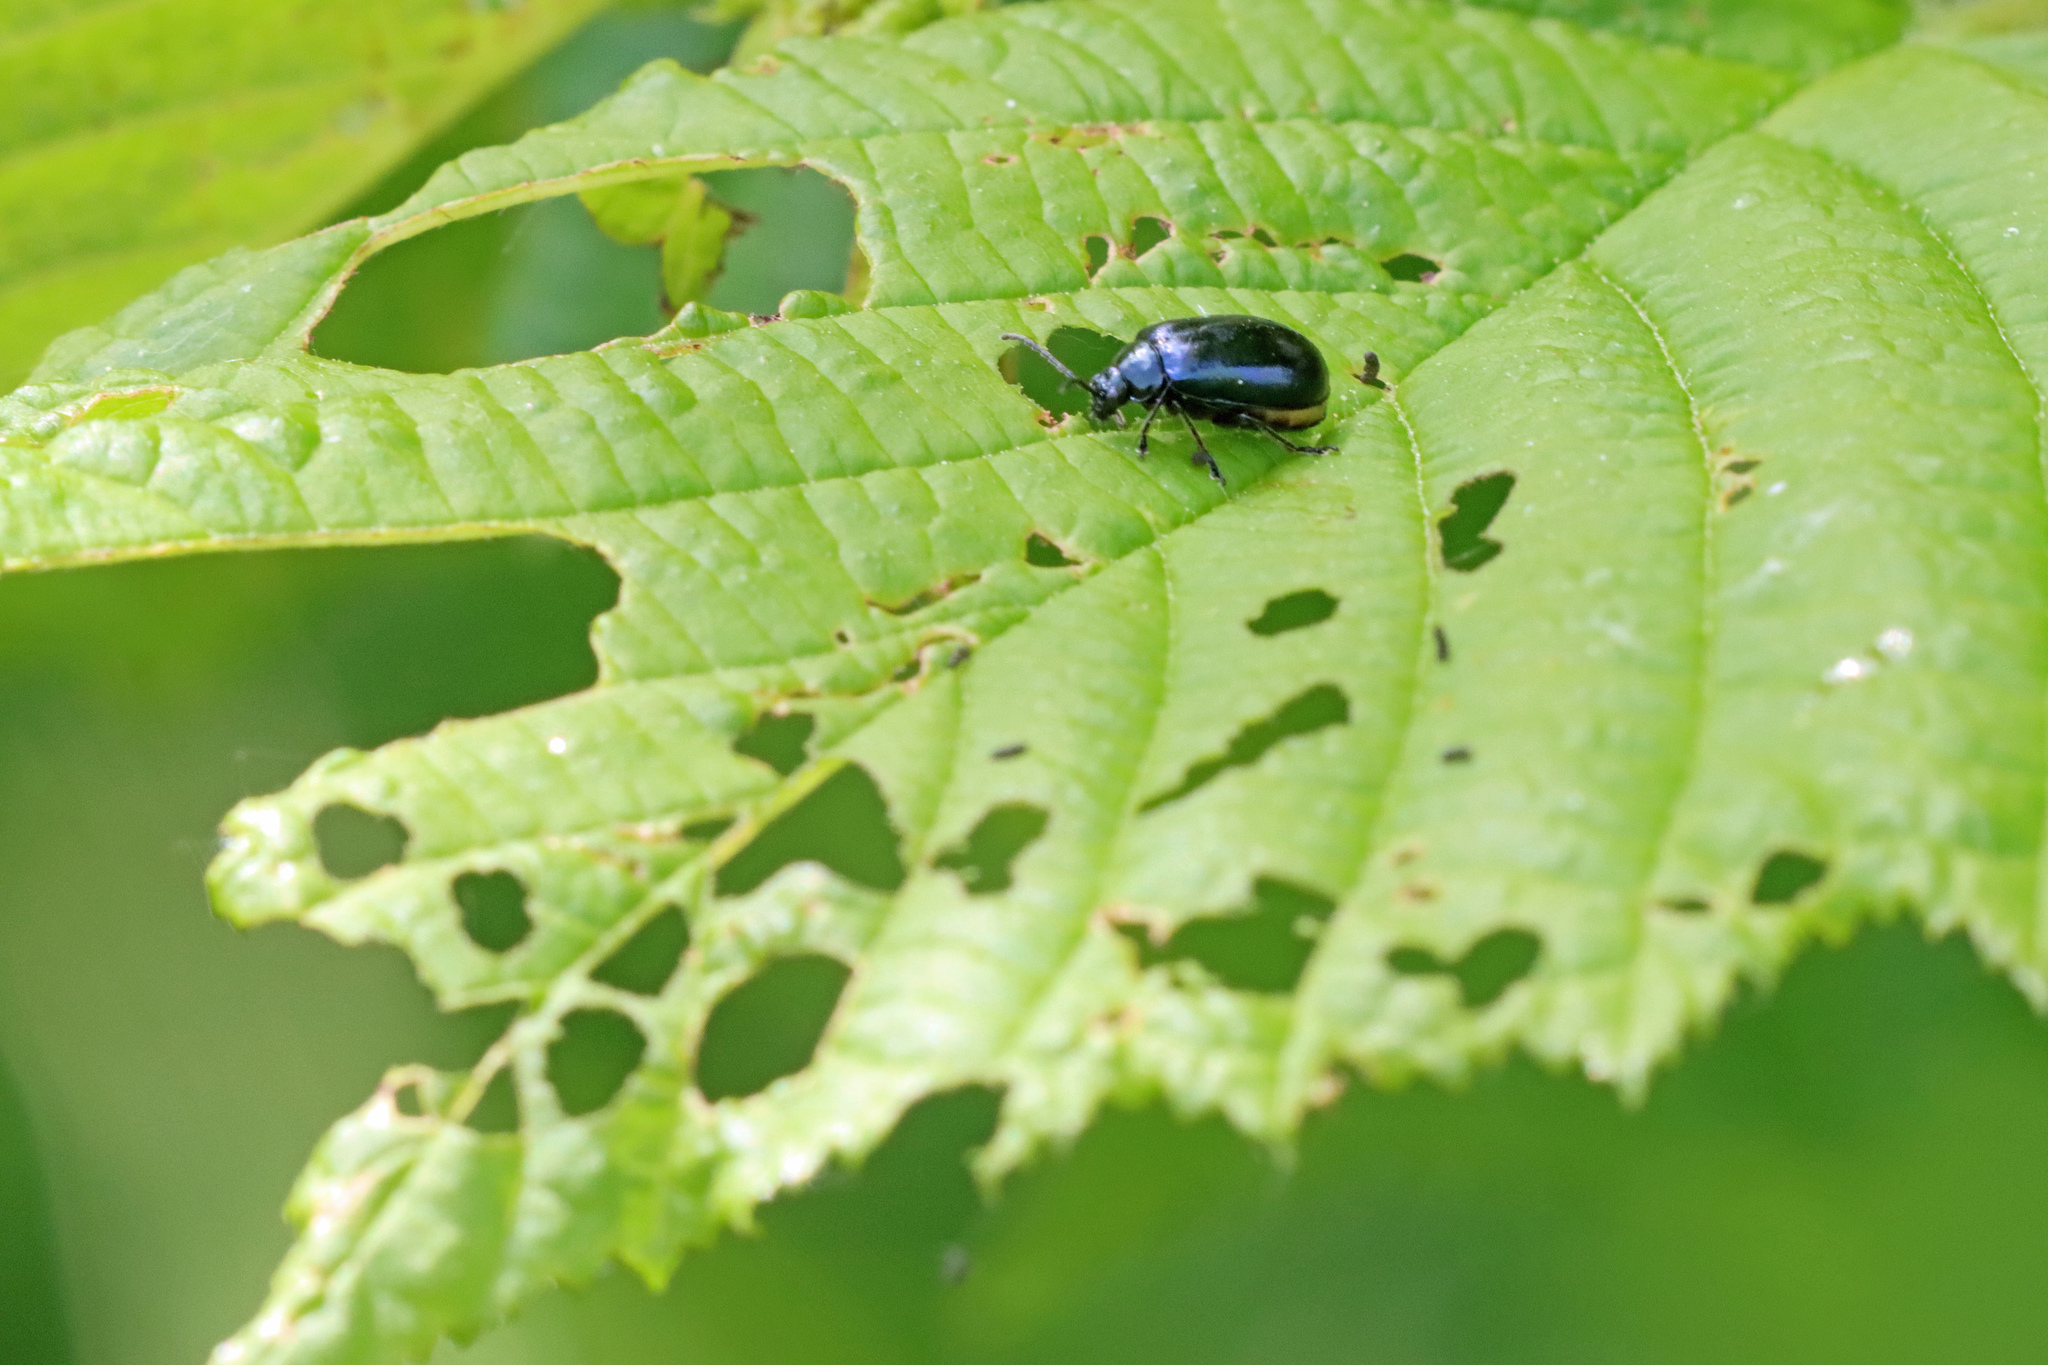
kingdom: Animalia
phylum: Arthropoda
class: Insecta
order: Coleoptera
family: Chrysomelidae
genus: Agelastica
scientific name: Agelastica alni
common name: Alder leaf beetle
